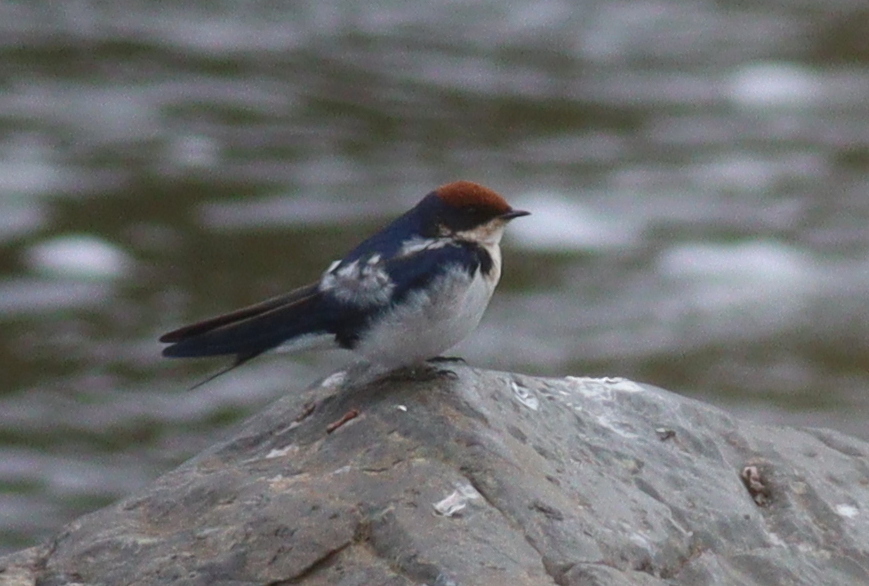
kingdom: Animalia
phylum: Chordata
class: Aves
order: Passeriformes
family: Hirundinidae
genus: Hirundo
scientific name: Hirundo smithii
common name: Wire-tailed swallow
